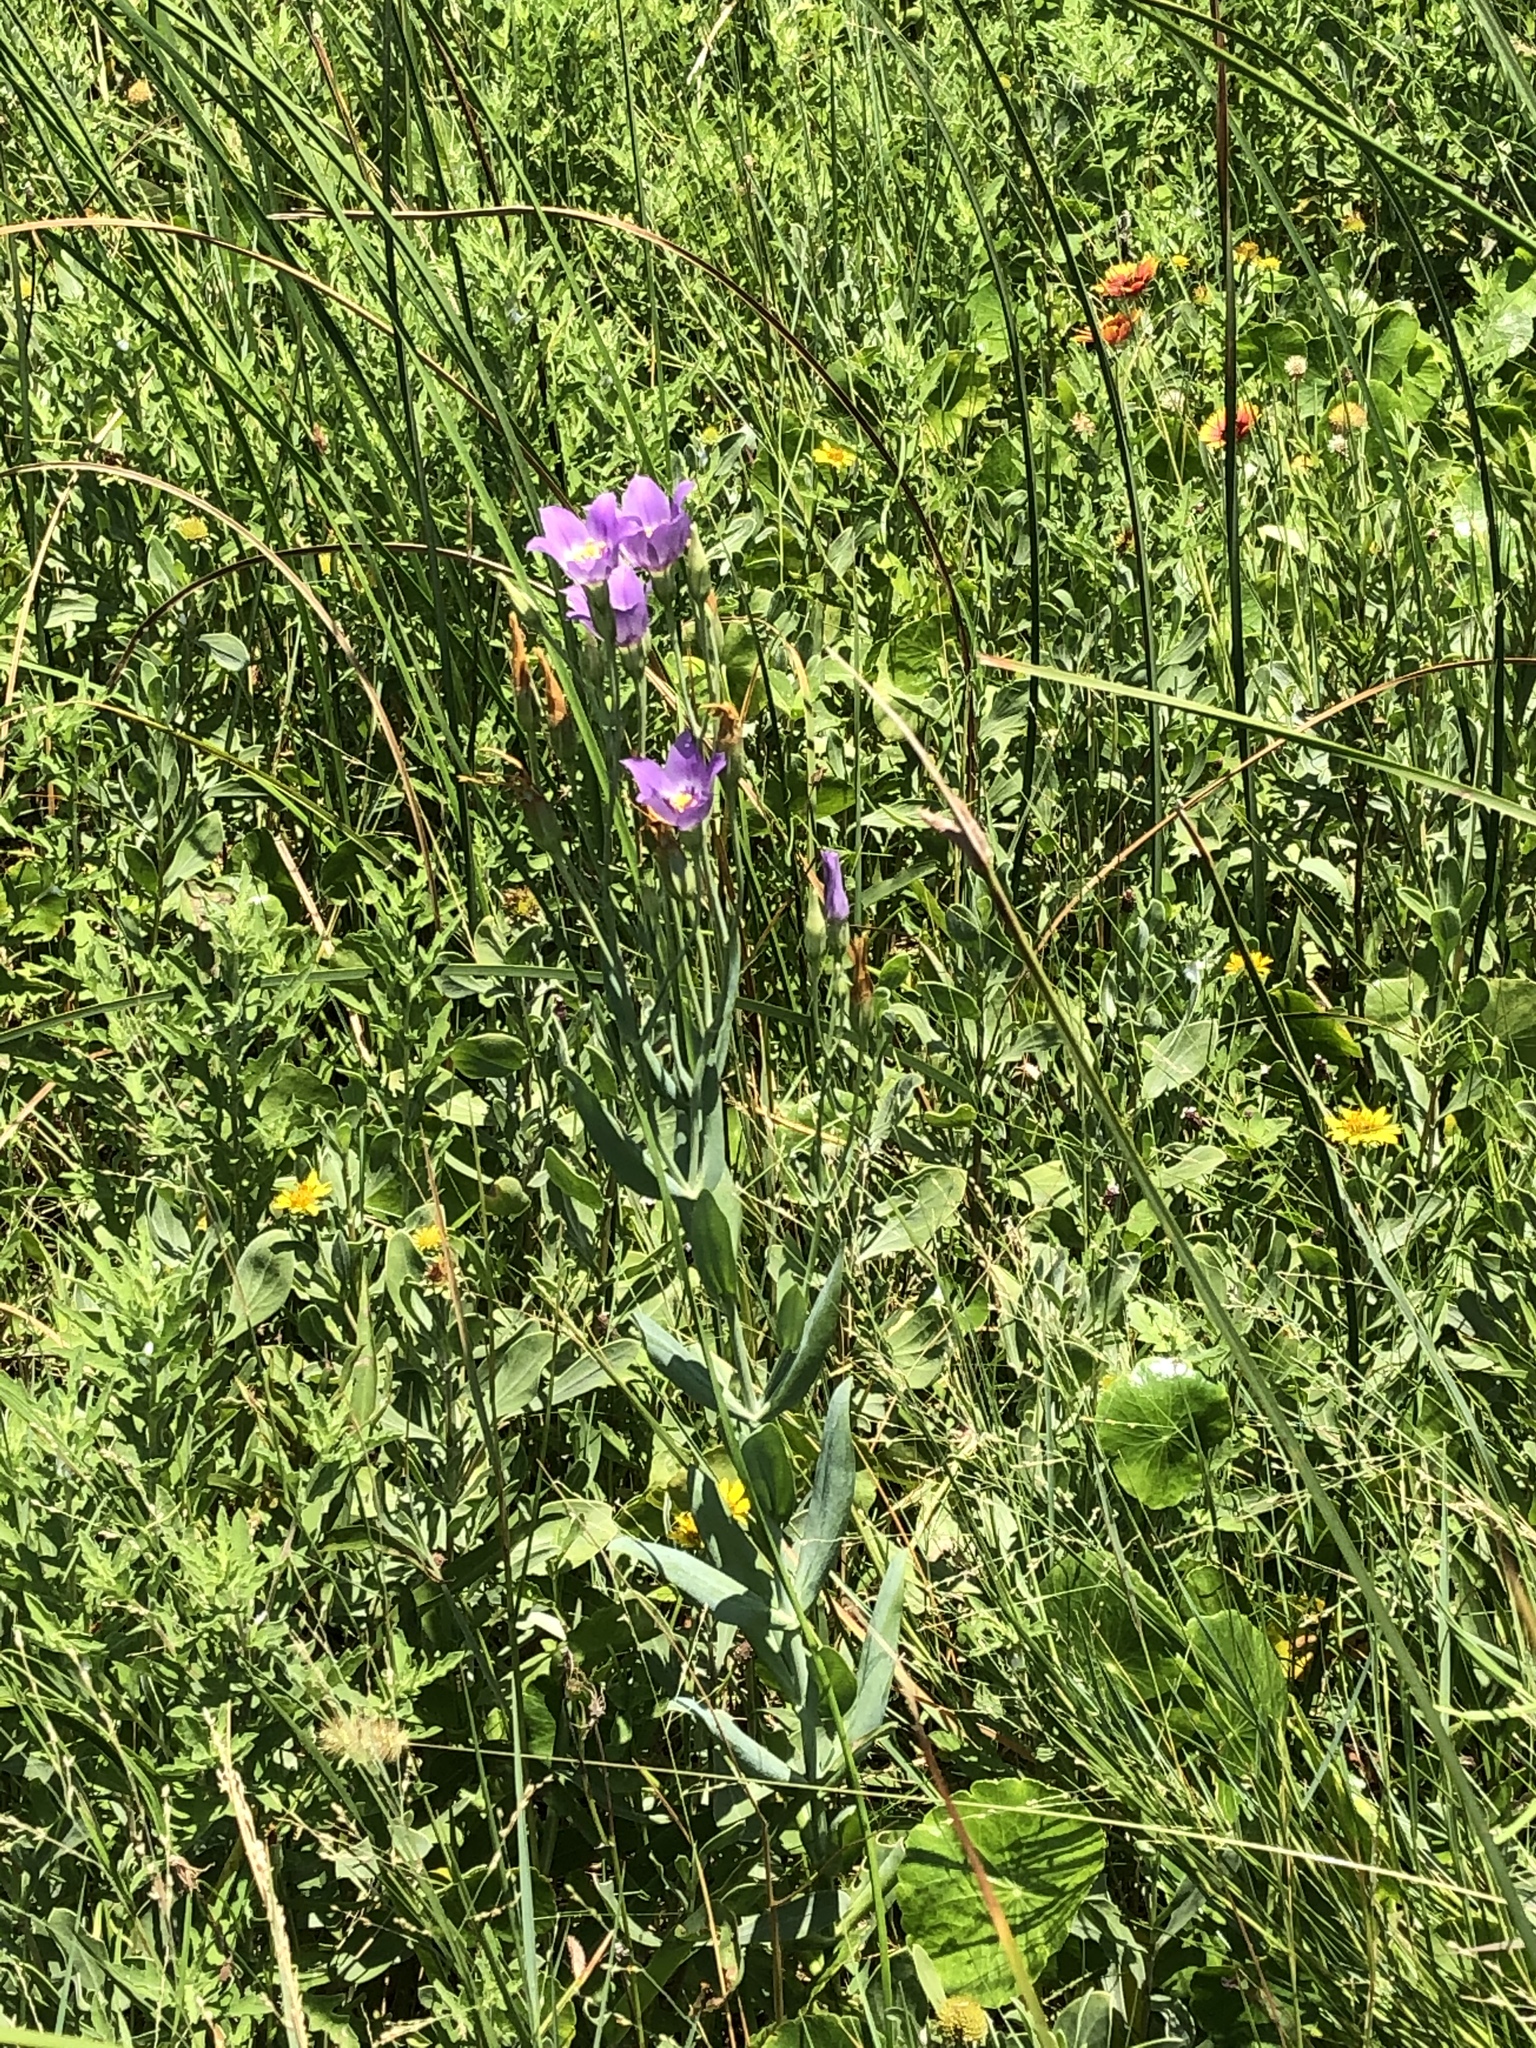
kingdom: Plantae
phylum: Tracheophyta
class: Magnoliopsida
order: Gentianales
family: Gentianaceae
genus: Eustoma
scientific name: Eustoma exaltatum
